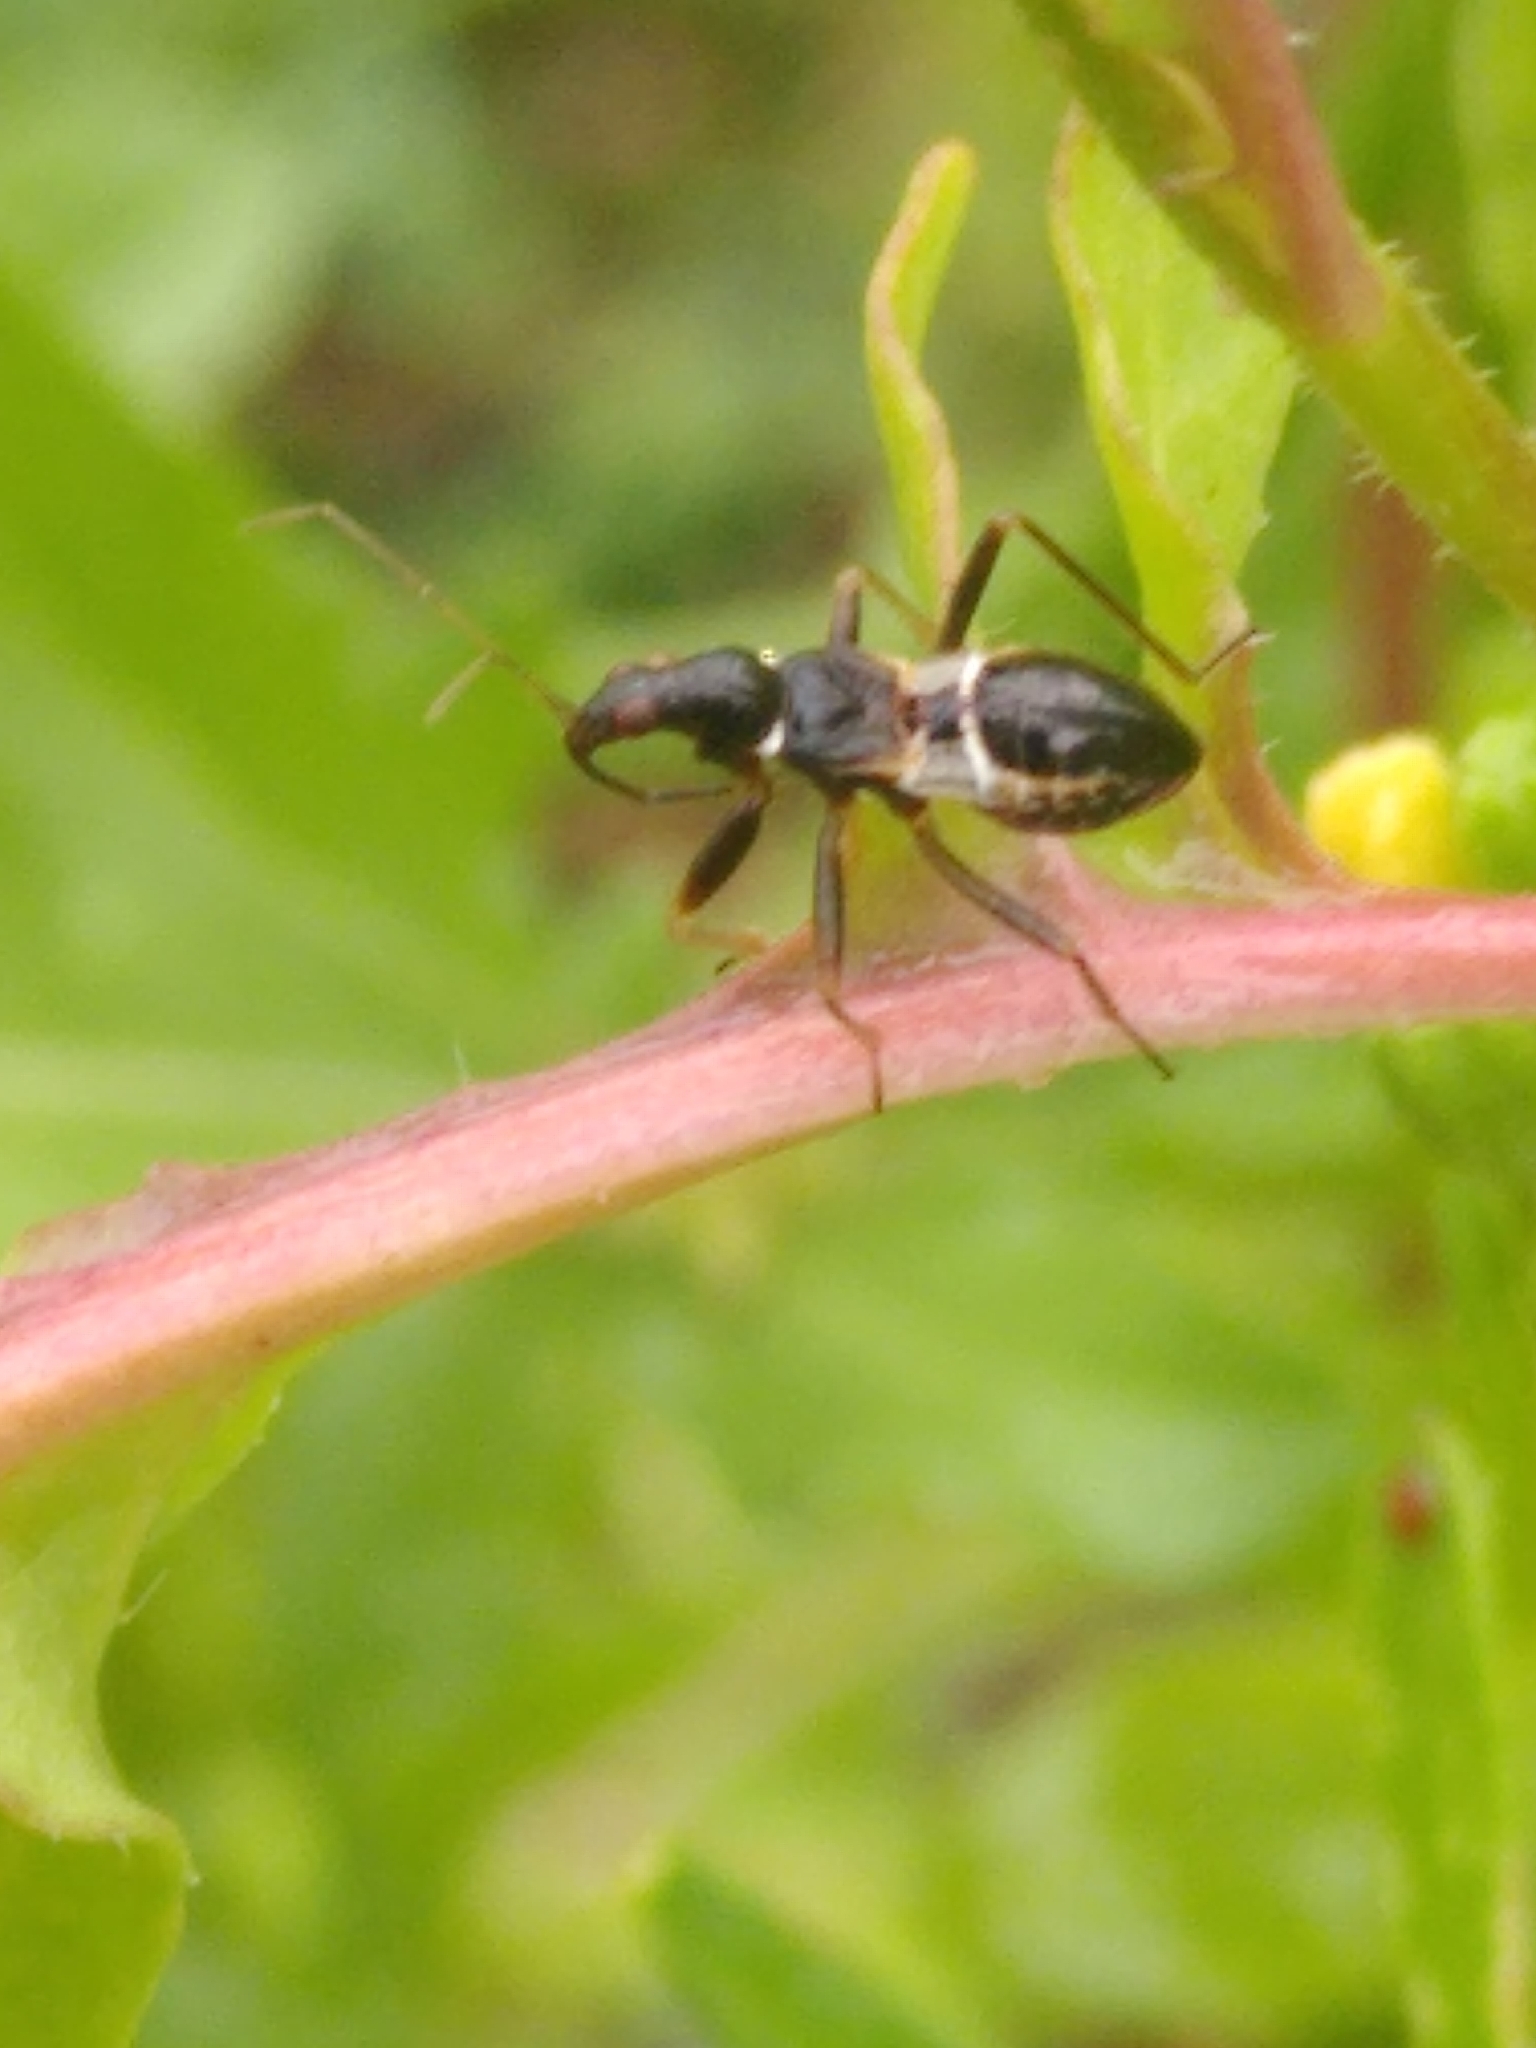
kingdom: Animalia
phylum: Arthropoda
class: Insecta
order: Hemiptera
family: Nabidae
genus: Himacerus
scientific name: Himacerus mirmicoides
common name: Ant damsel bug
